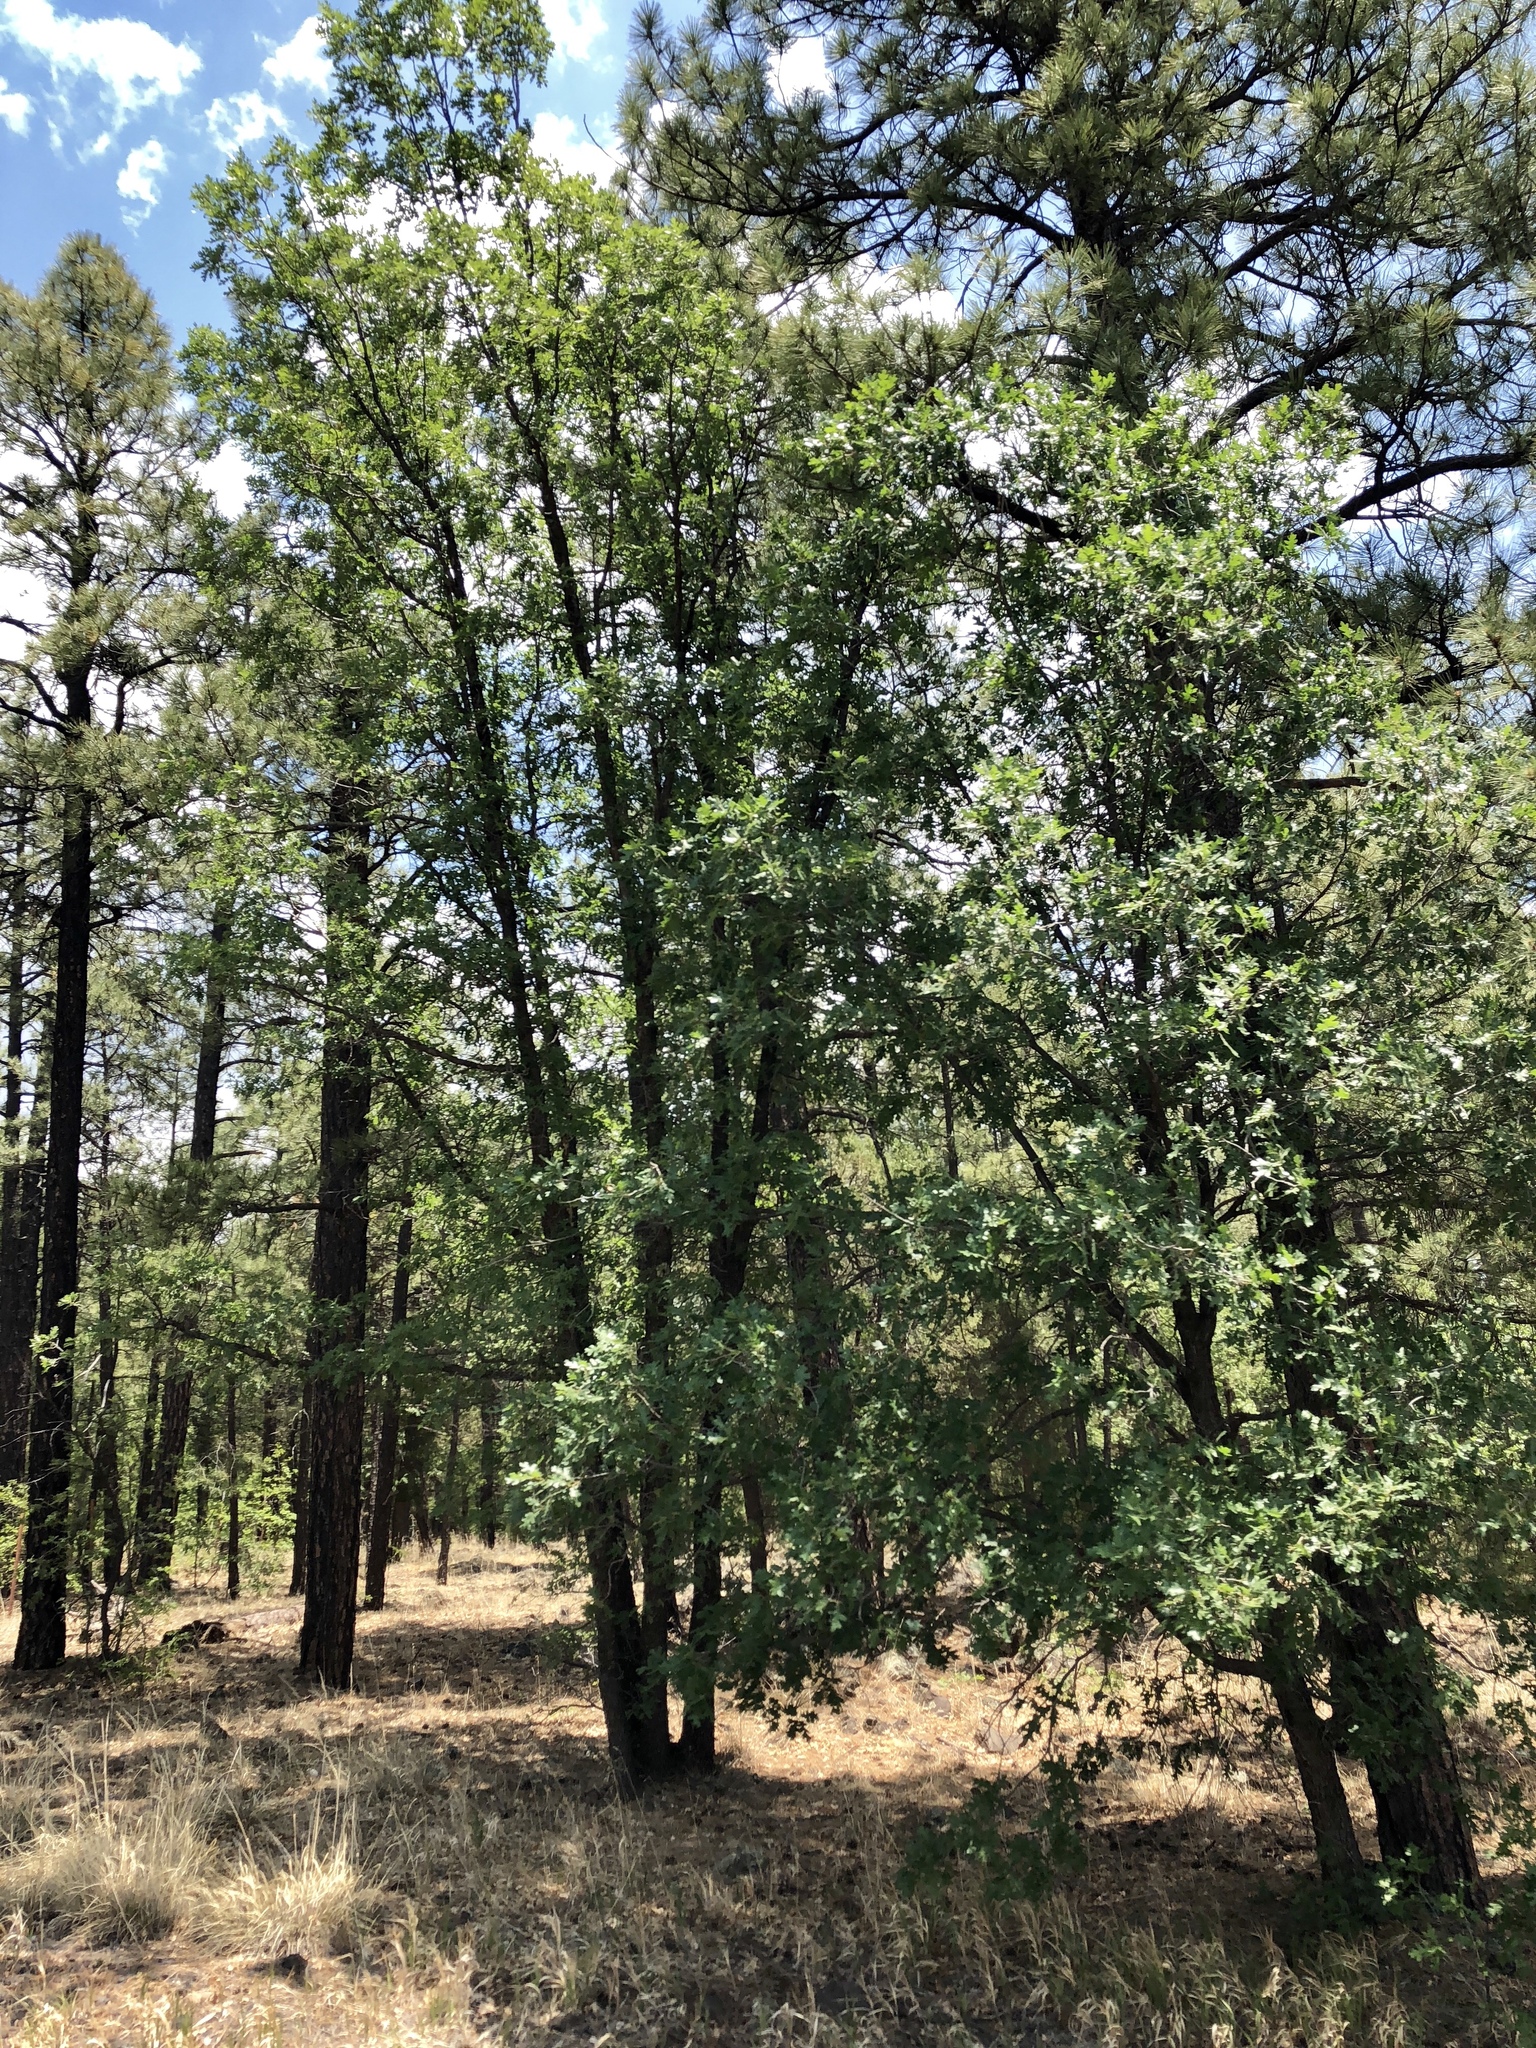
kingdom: Plantae
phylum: Tracheophyta
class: Magnoliopsida
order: Fagales
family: Fagaceae
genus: Quercus
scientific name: Quercus gambelii
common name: Gambel oak
